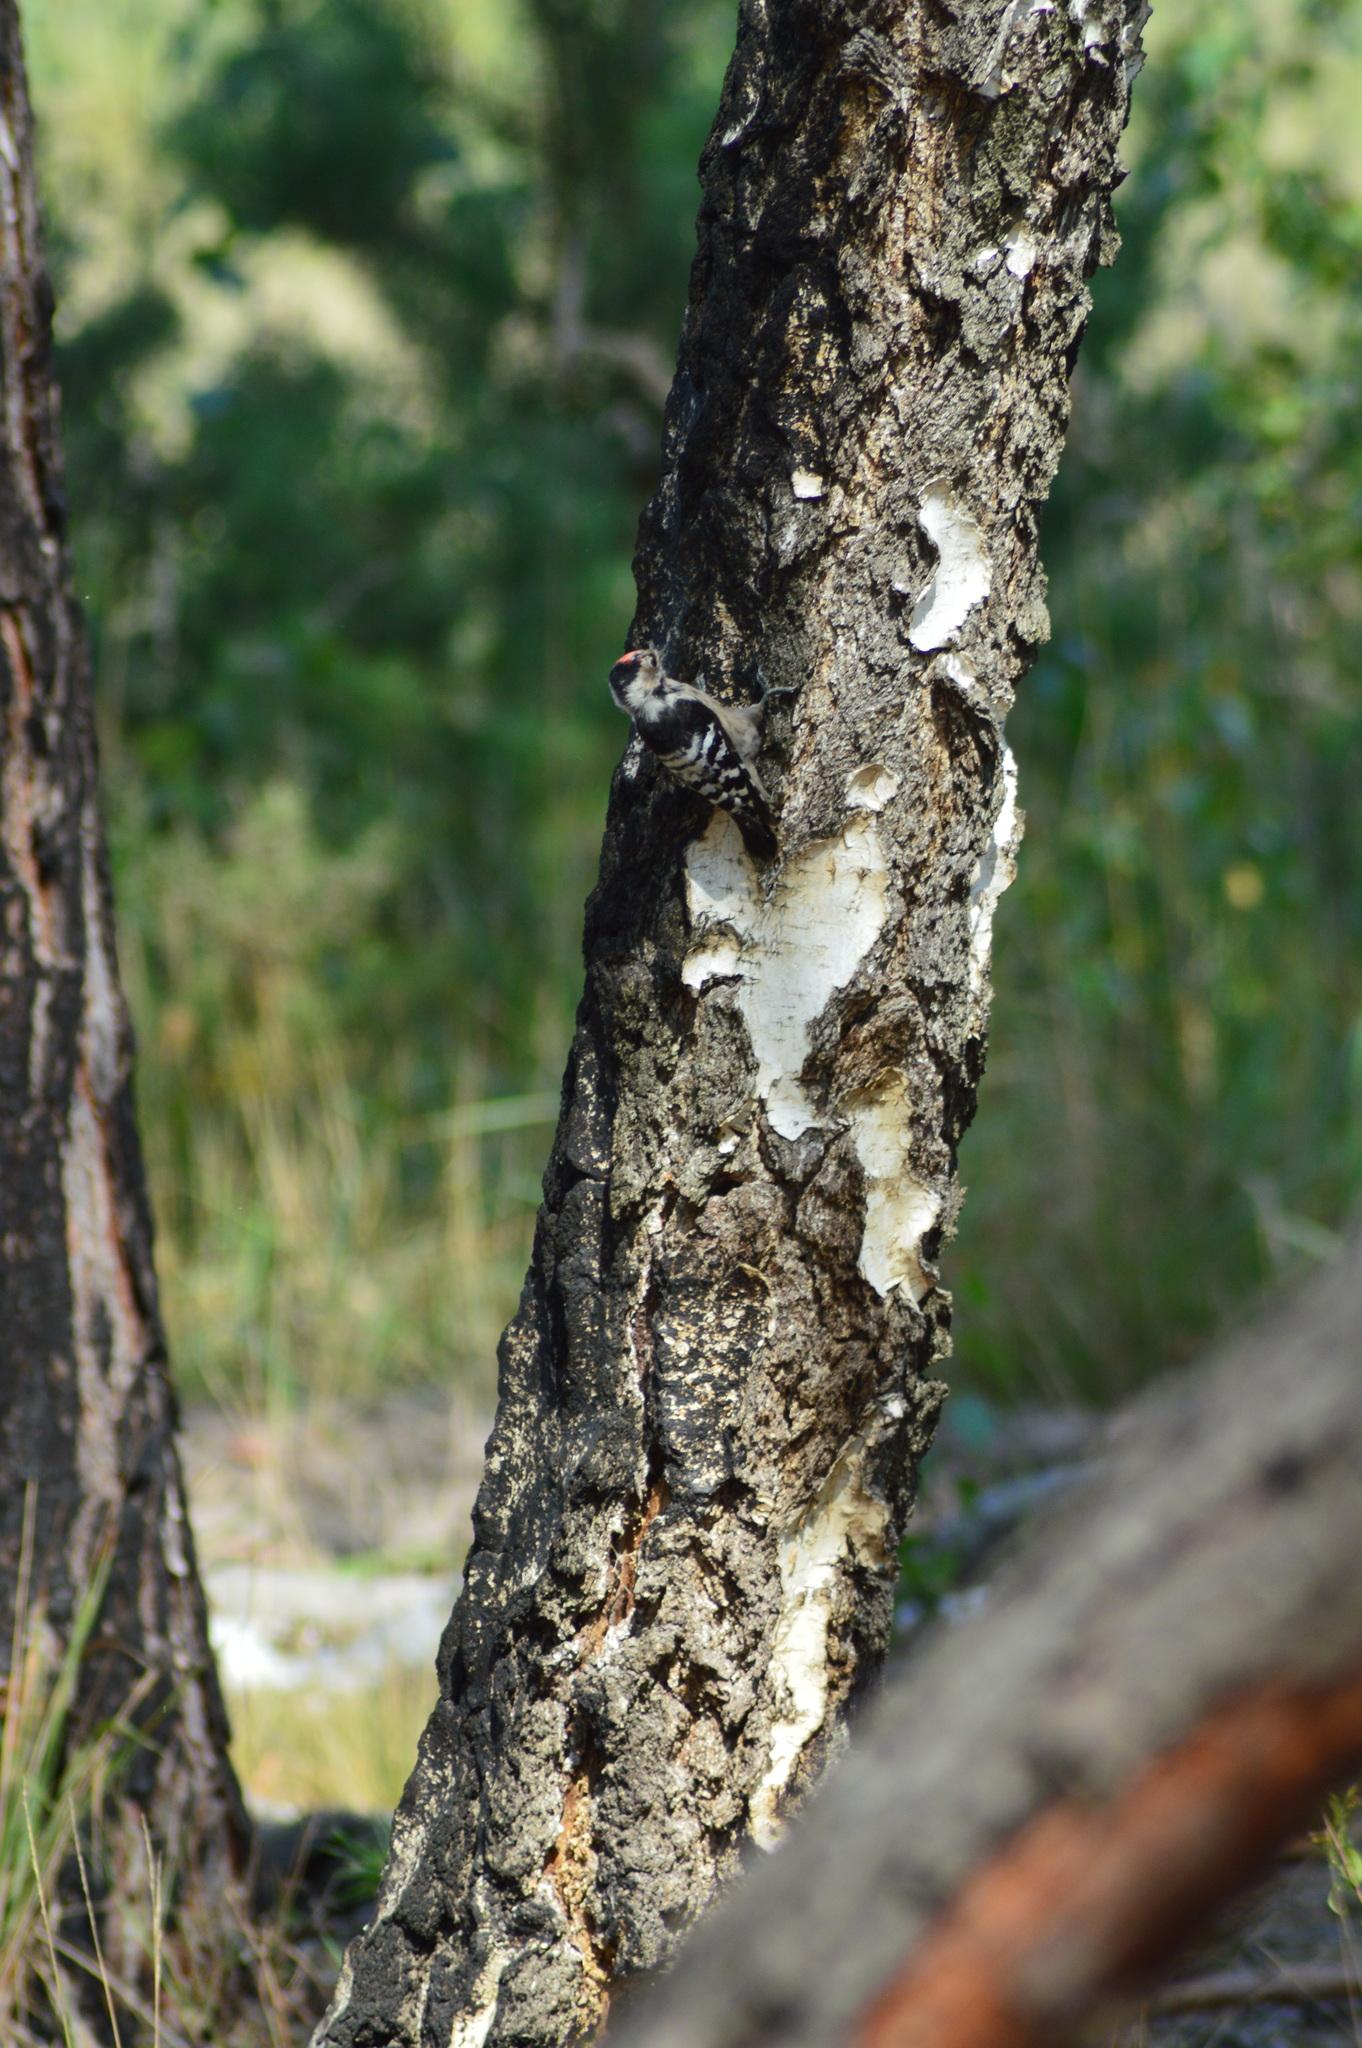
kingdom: Animalia
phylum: Chordata
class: Aves
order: Piciformes
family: Picidae
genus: Dryobates
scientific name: Dryobates minor
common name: Lesser spotted woodpecker
